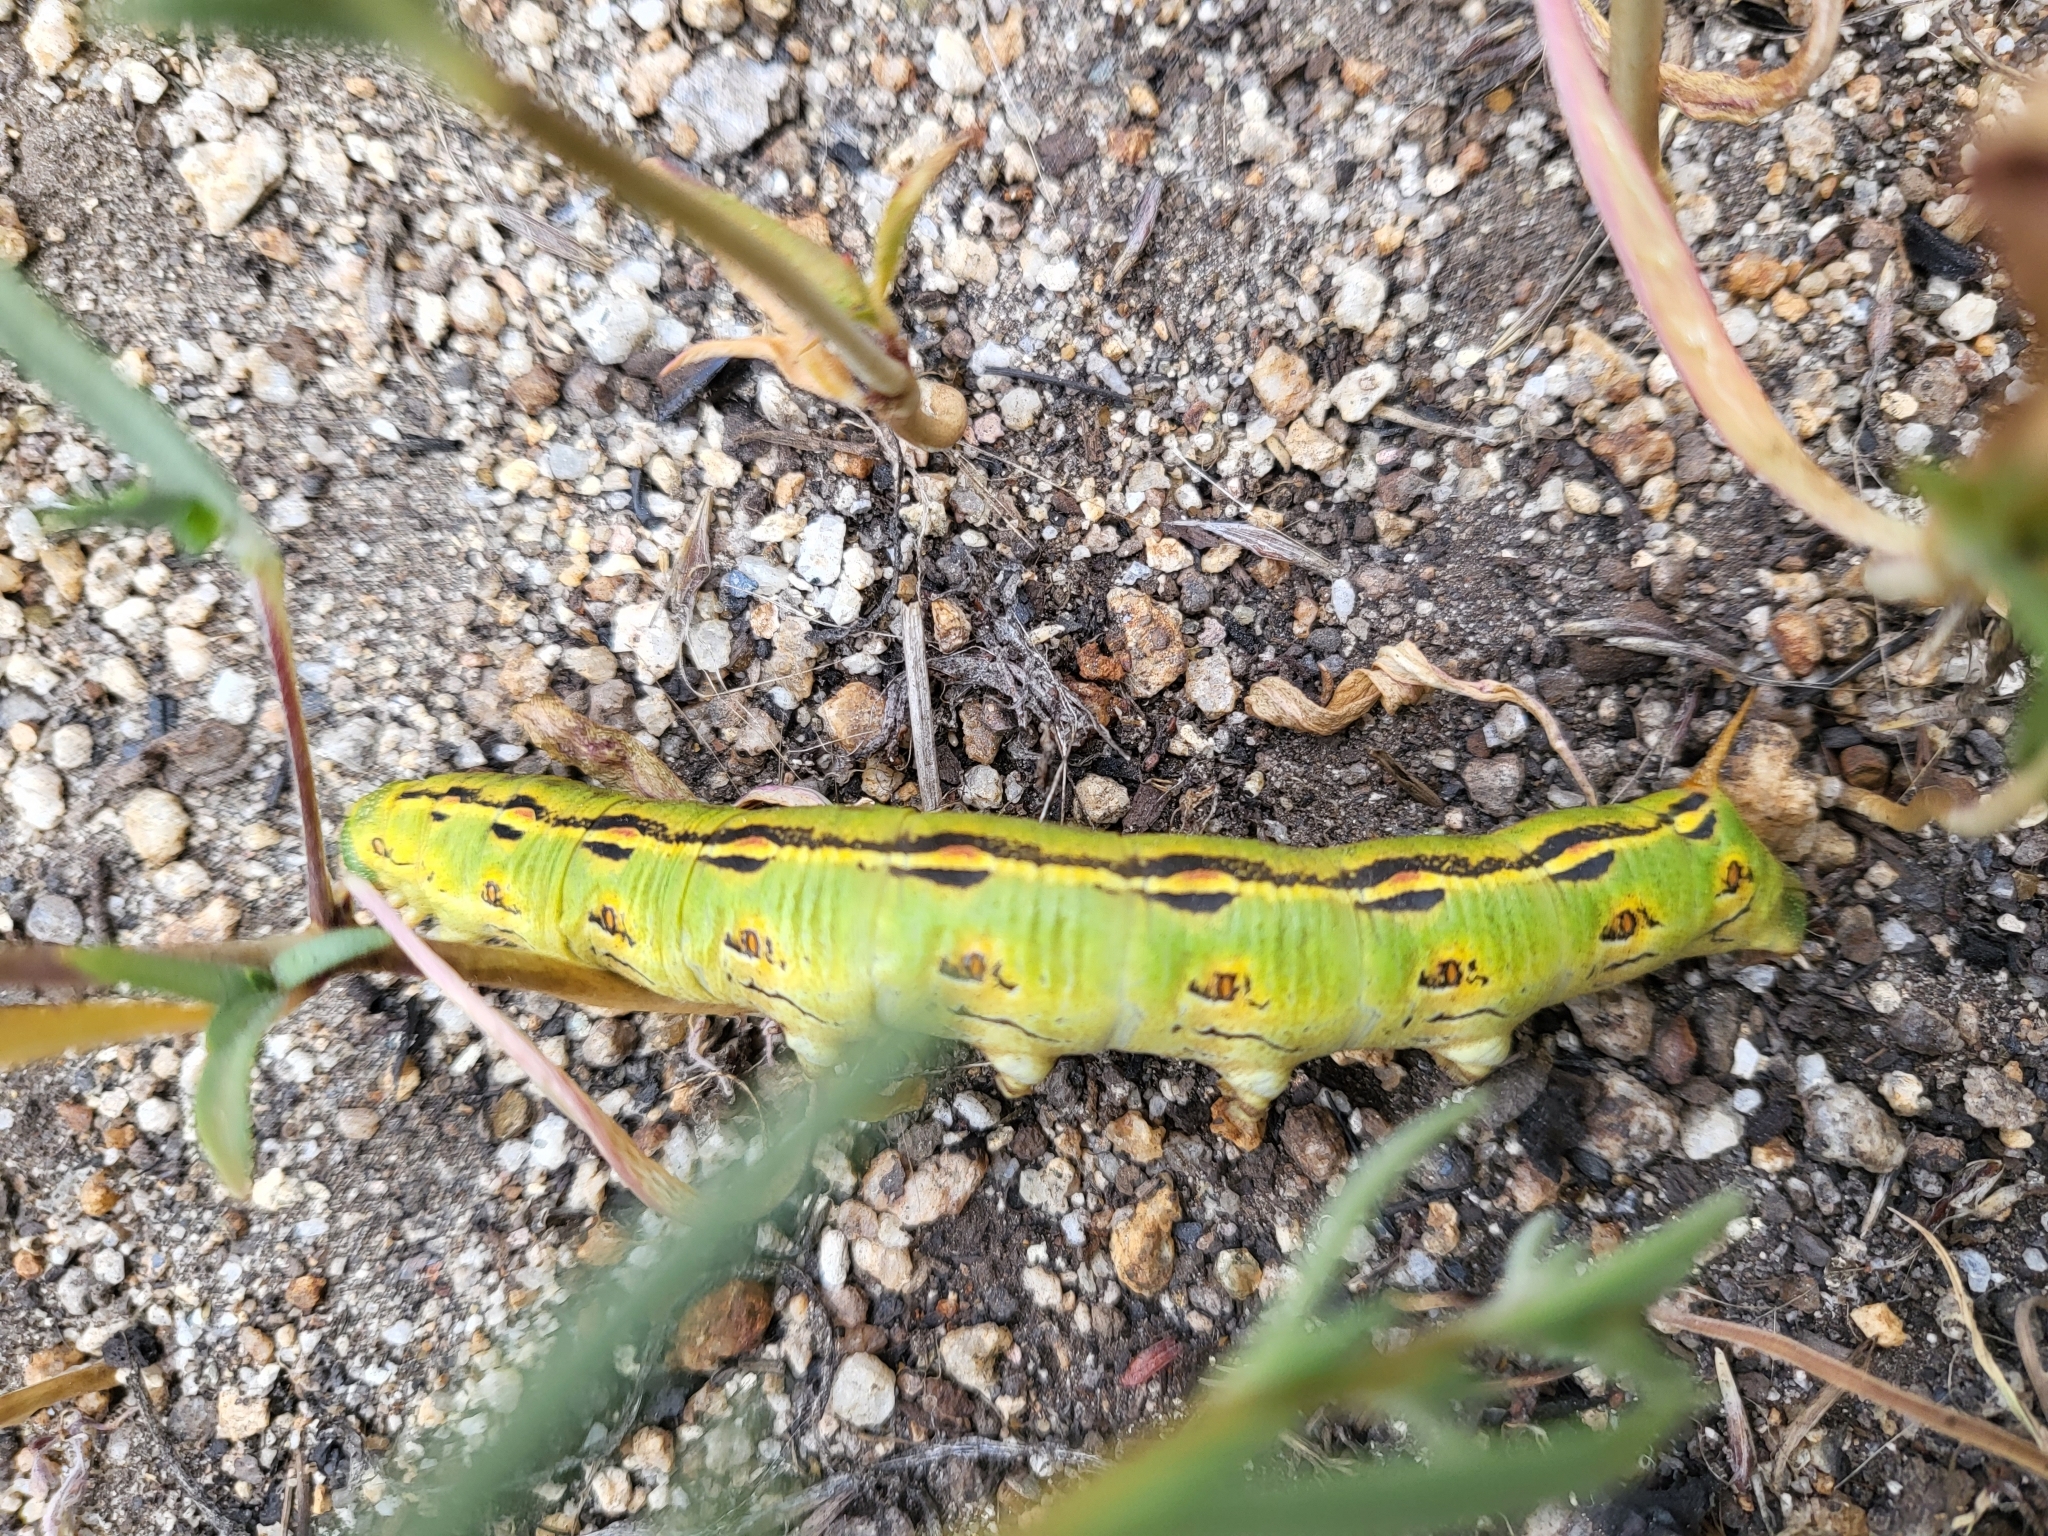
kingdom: Animalia
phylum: Arthropoda
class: Insecta
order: Lepidoptera
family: Sphingidae
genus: Hyles
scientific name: Hyles lineata
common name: White-lined sphinx
